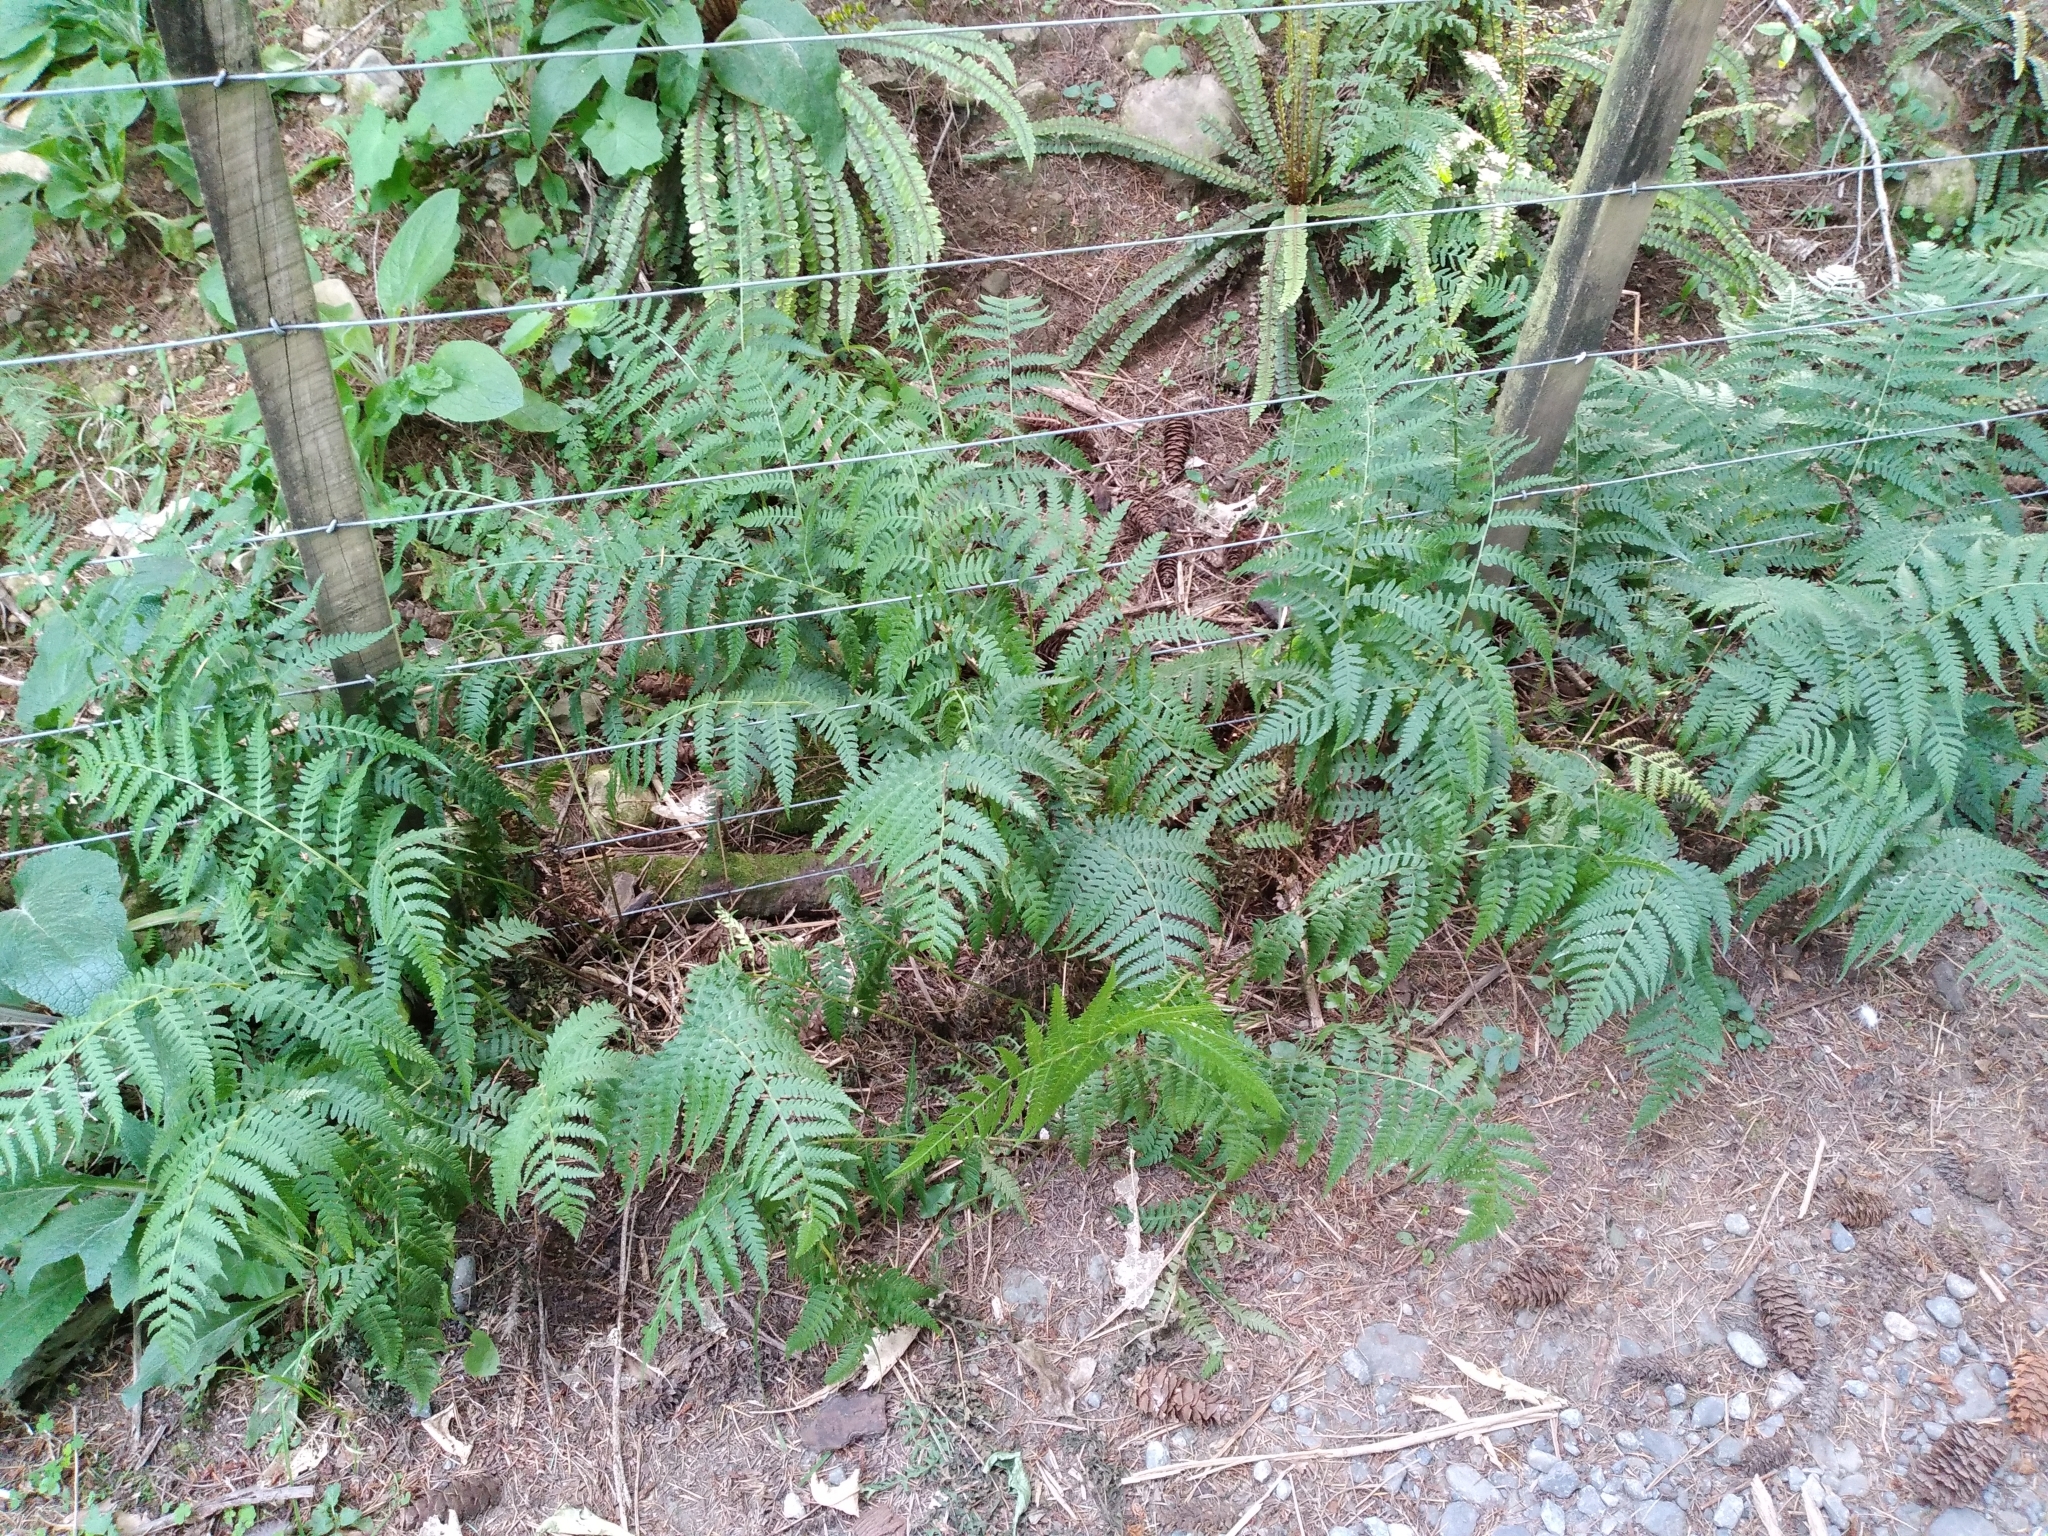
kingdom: Plantae
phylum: Tracheophyta
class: Polypodiopsida
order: Polypodiales
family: Athyriaceae
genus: Diplazium
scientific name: Diplazium congruum
